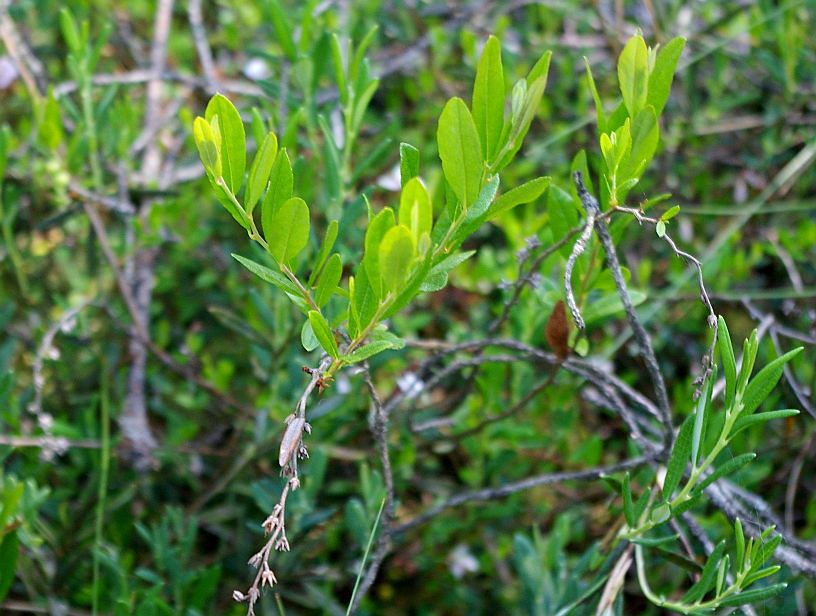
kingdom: Plantae
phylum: Tracheophyta
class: Magnoliopsida
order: Ericales
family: Ericaceae
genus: Chamaedaphne
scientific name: Chamaedaphne calyculata
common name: Leatherleaf
